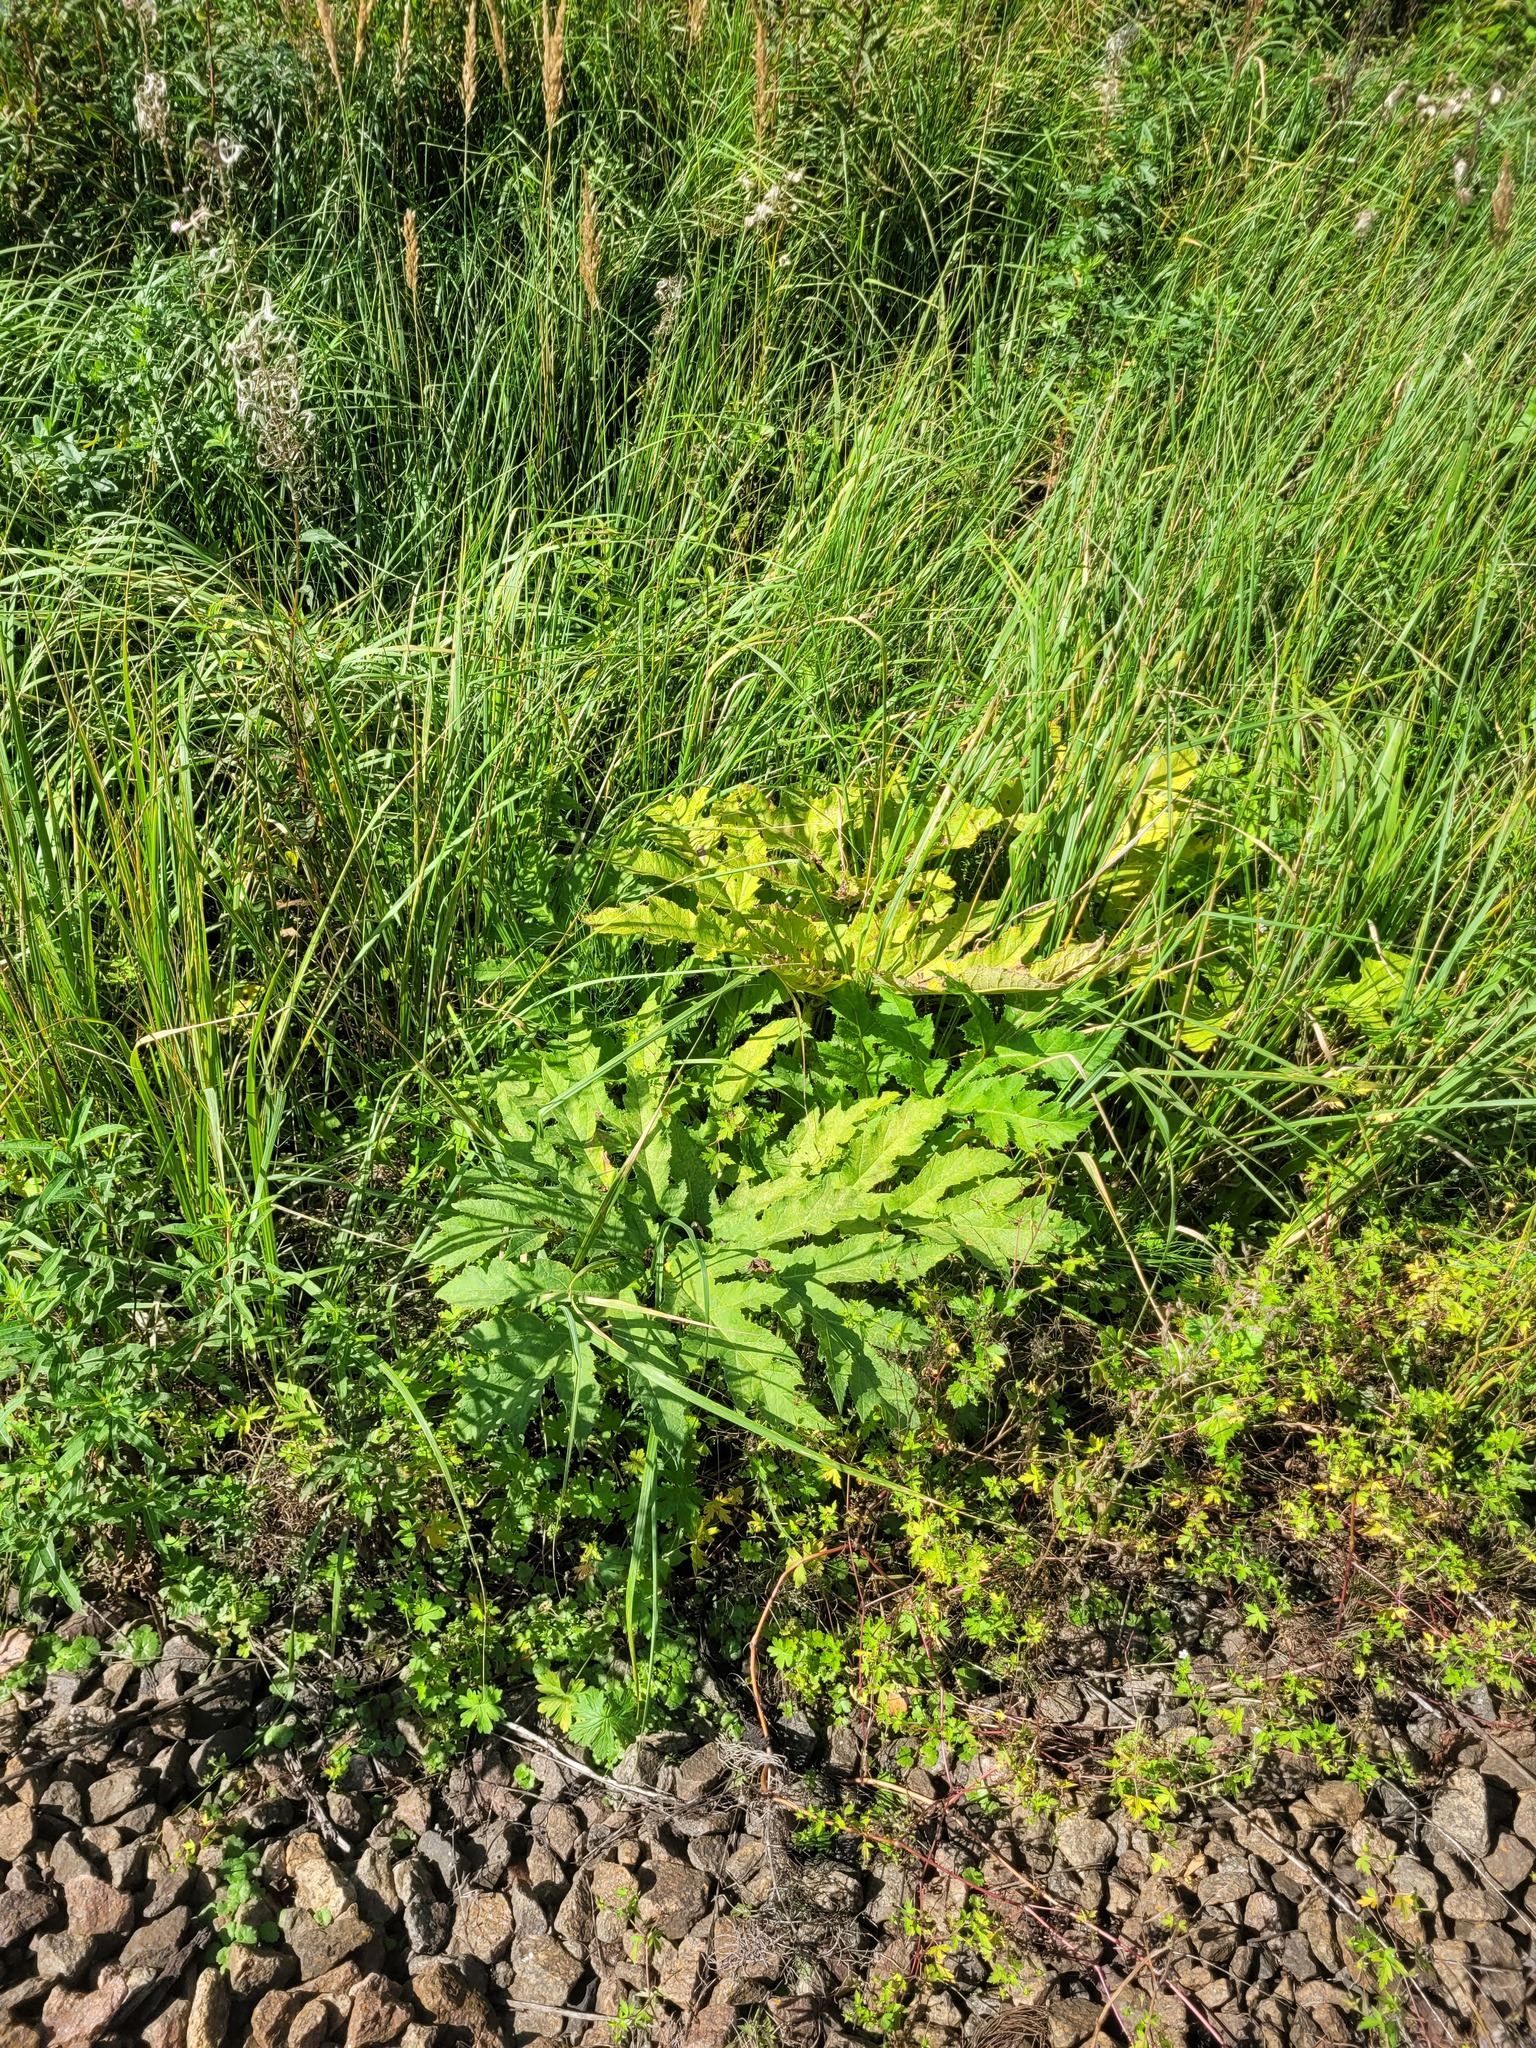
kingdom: Plantae
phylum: Tracheophyta
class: Magnoliopsida
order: Apiales
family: Apiaceae
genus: Heracleum
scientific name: Heracleum sosnowskyi
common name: Sosnowsky's hogweed
